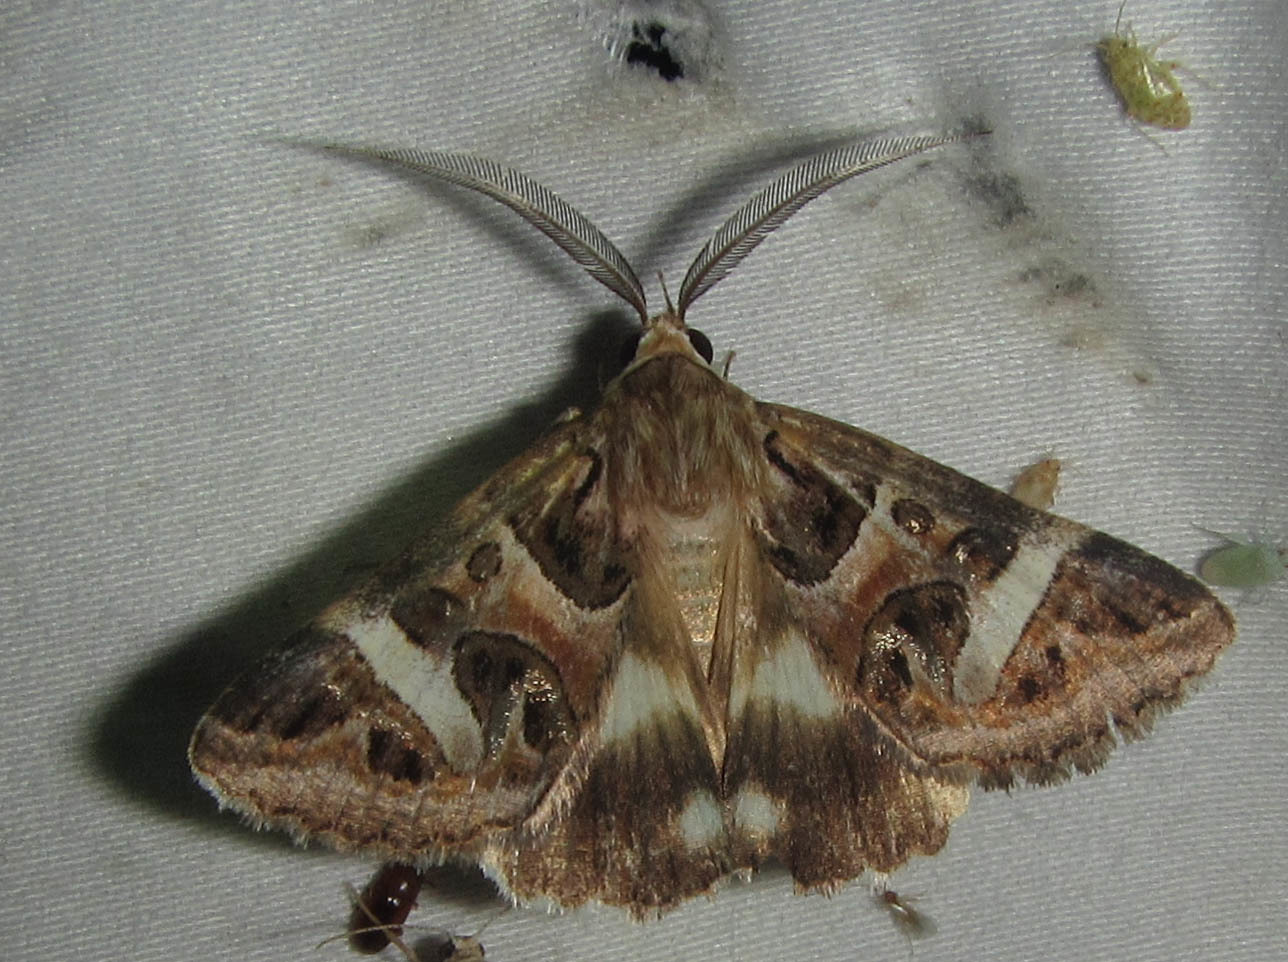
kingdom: Animalia
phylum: Arthropoda
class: Insecta
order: Lepidoptera
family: Erebidae
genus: Cerocala
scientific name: Cerocala vermiculosa
